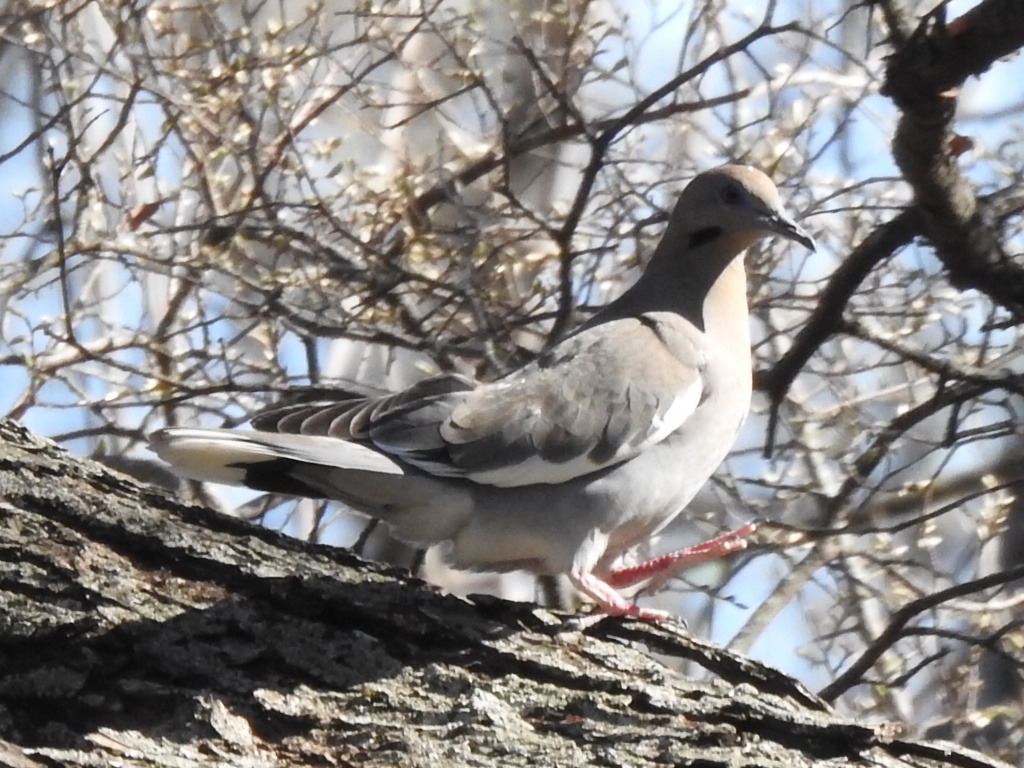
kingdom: Animalia
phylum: Chordata
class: Aves
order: Columbiformes
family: Columbidae
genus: Zenaida
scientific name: Zenaida asiatica
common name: White-winged dove
